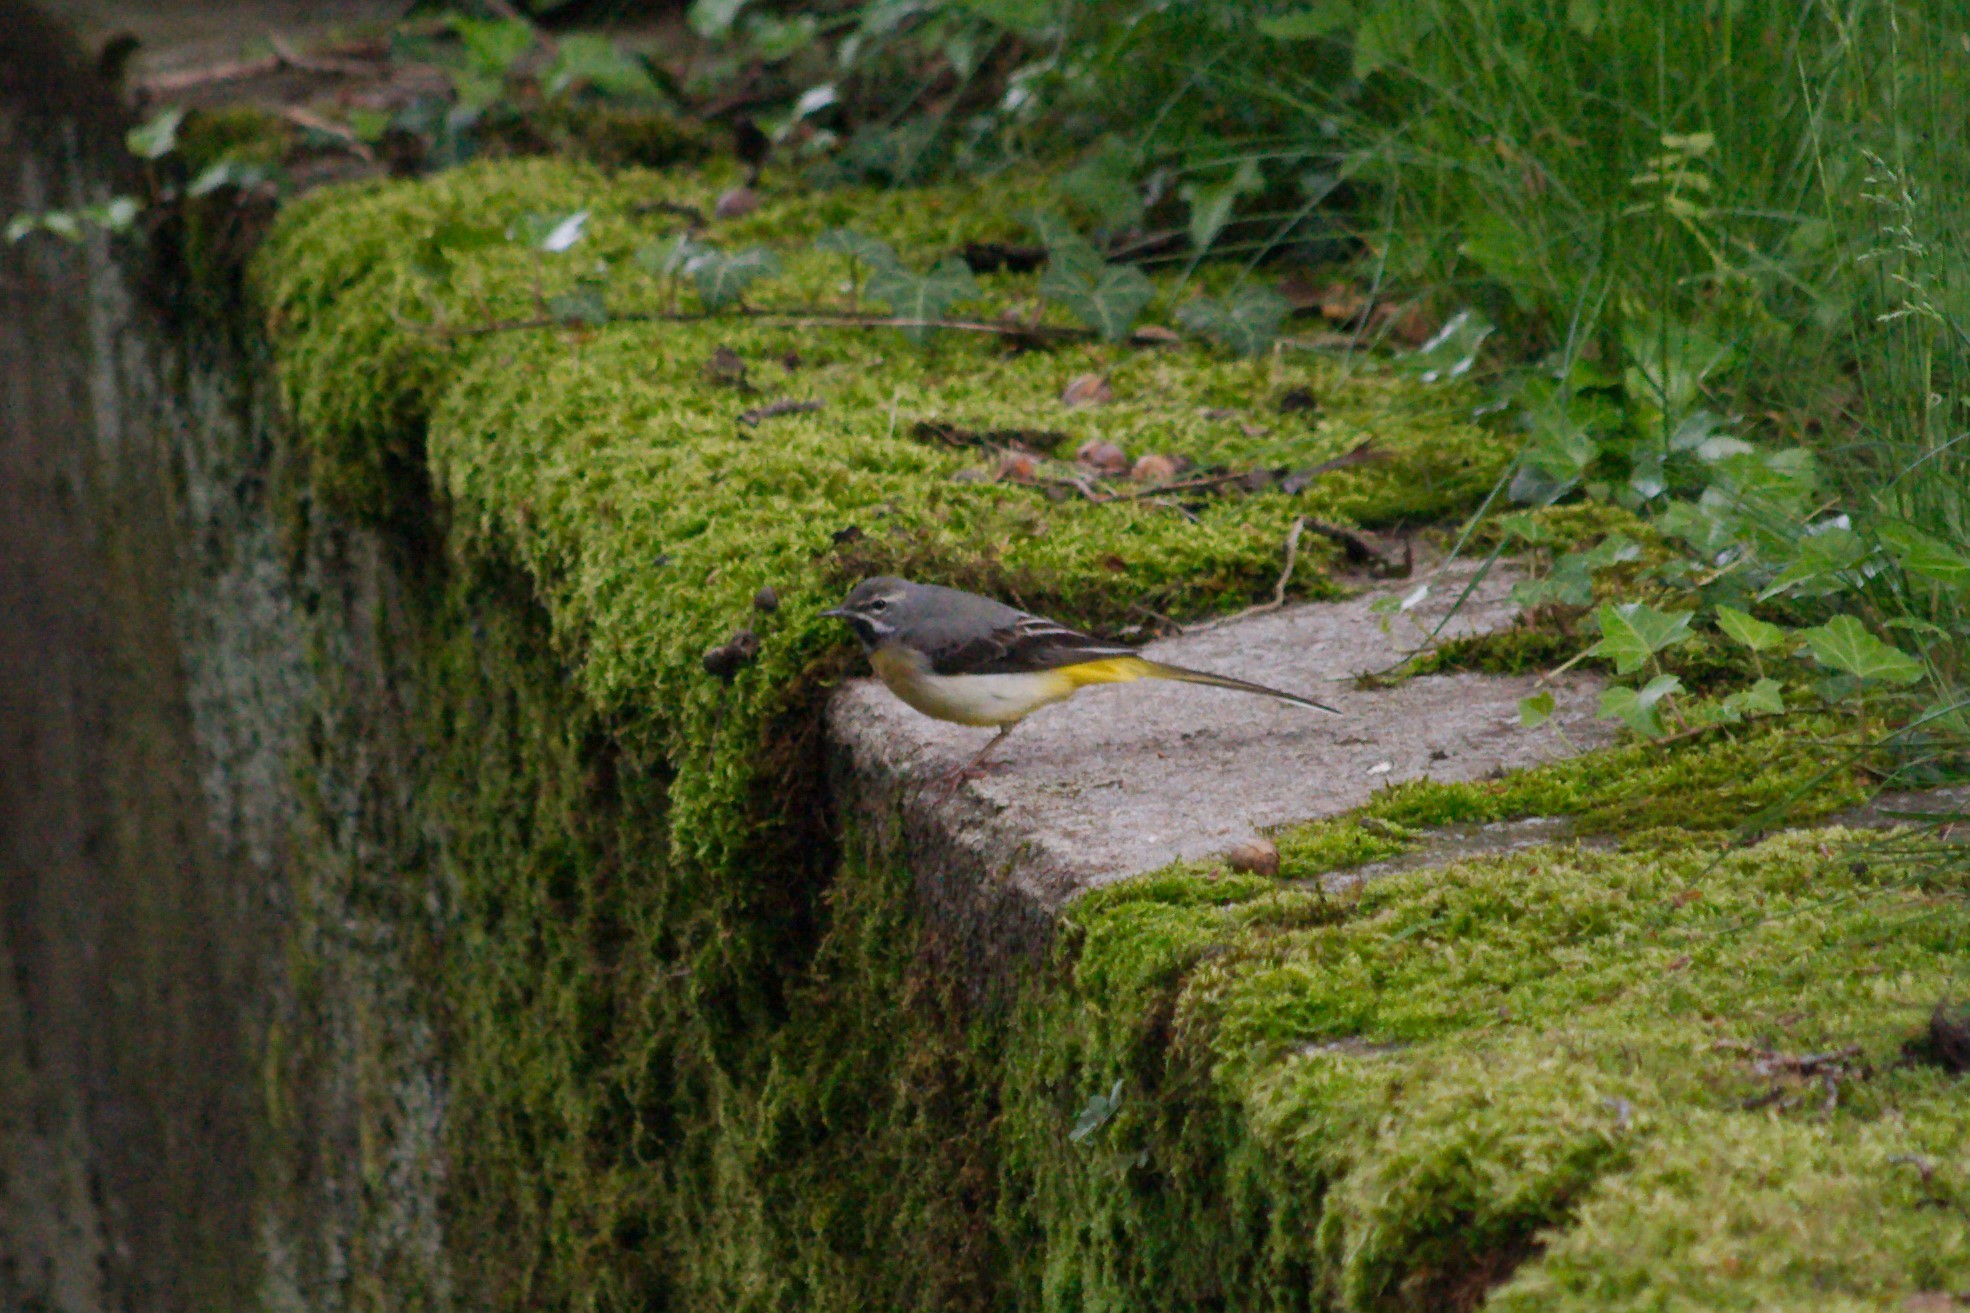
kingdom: Animalia
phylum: Chordata
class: Aves
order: Passeriformes
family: Motacillidae
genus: Motacilla
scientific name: Motacilla cinerea
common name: Grey wagtail
